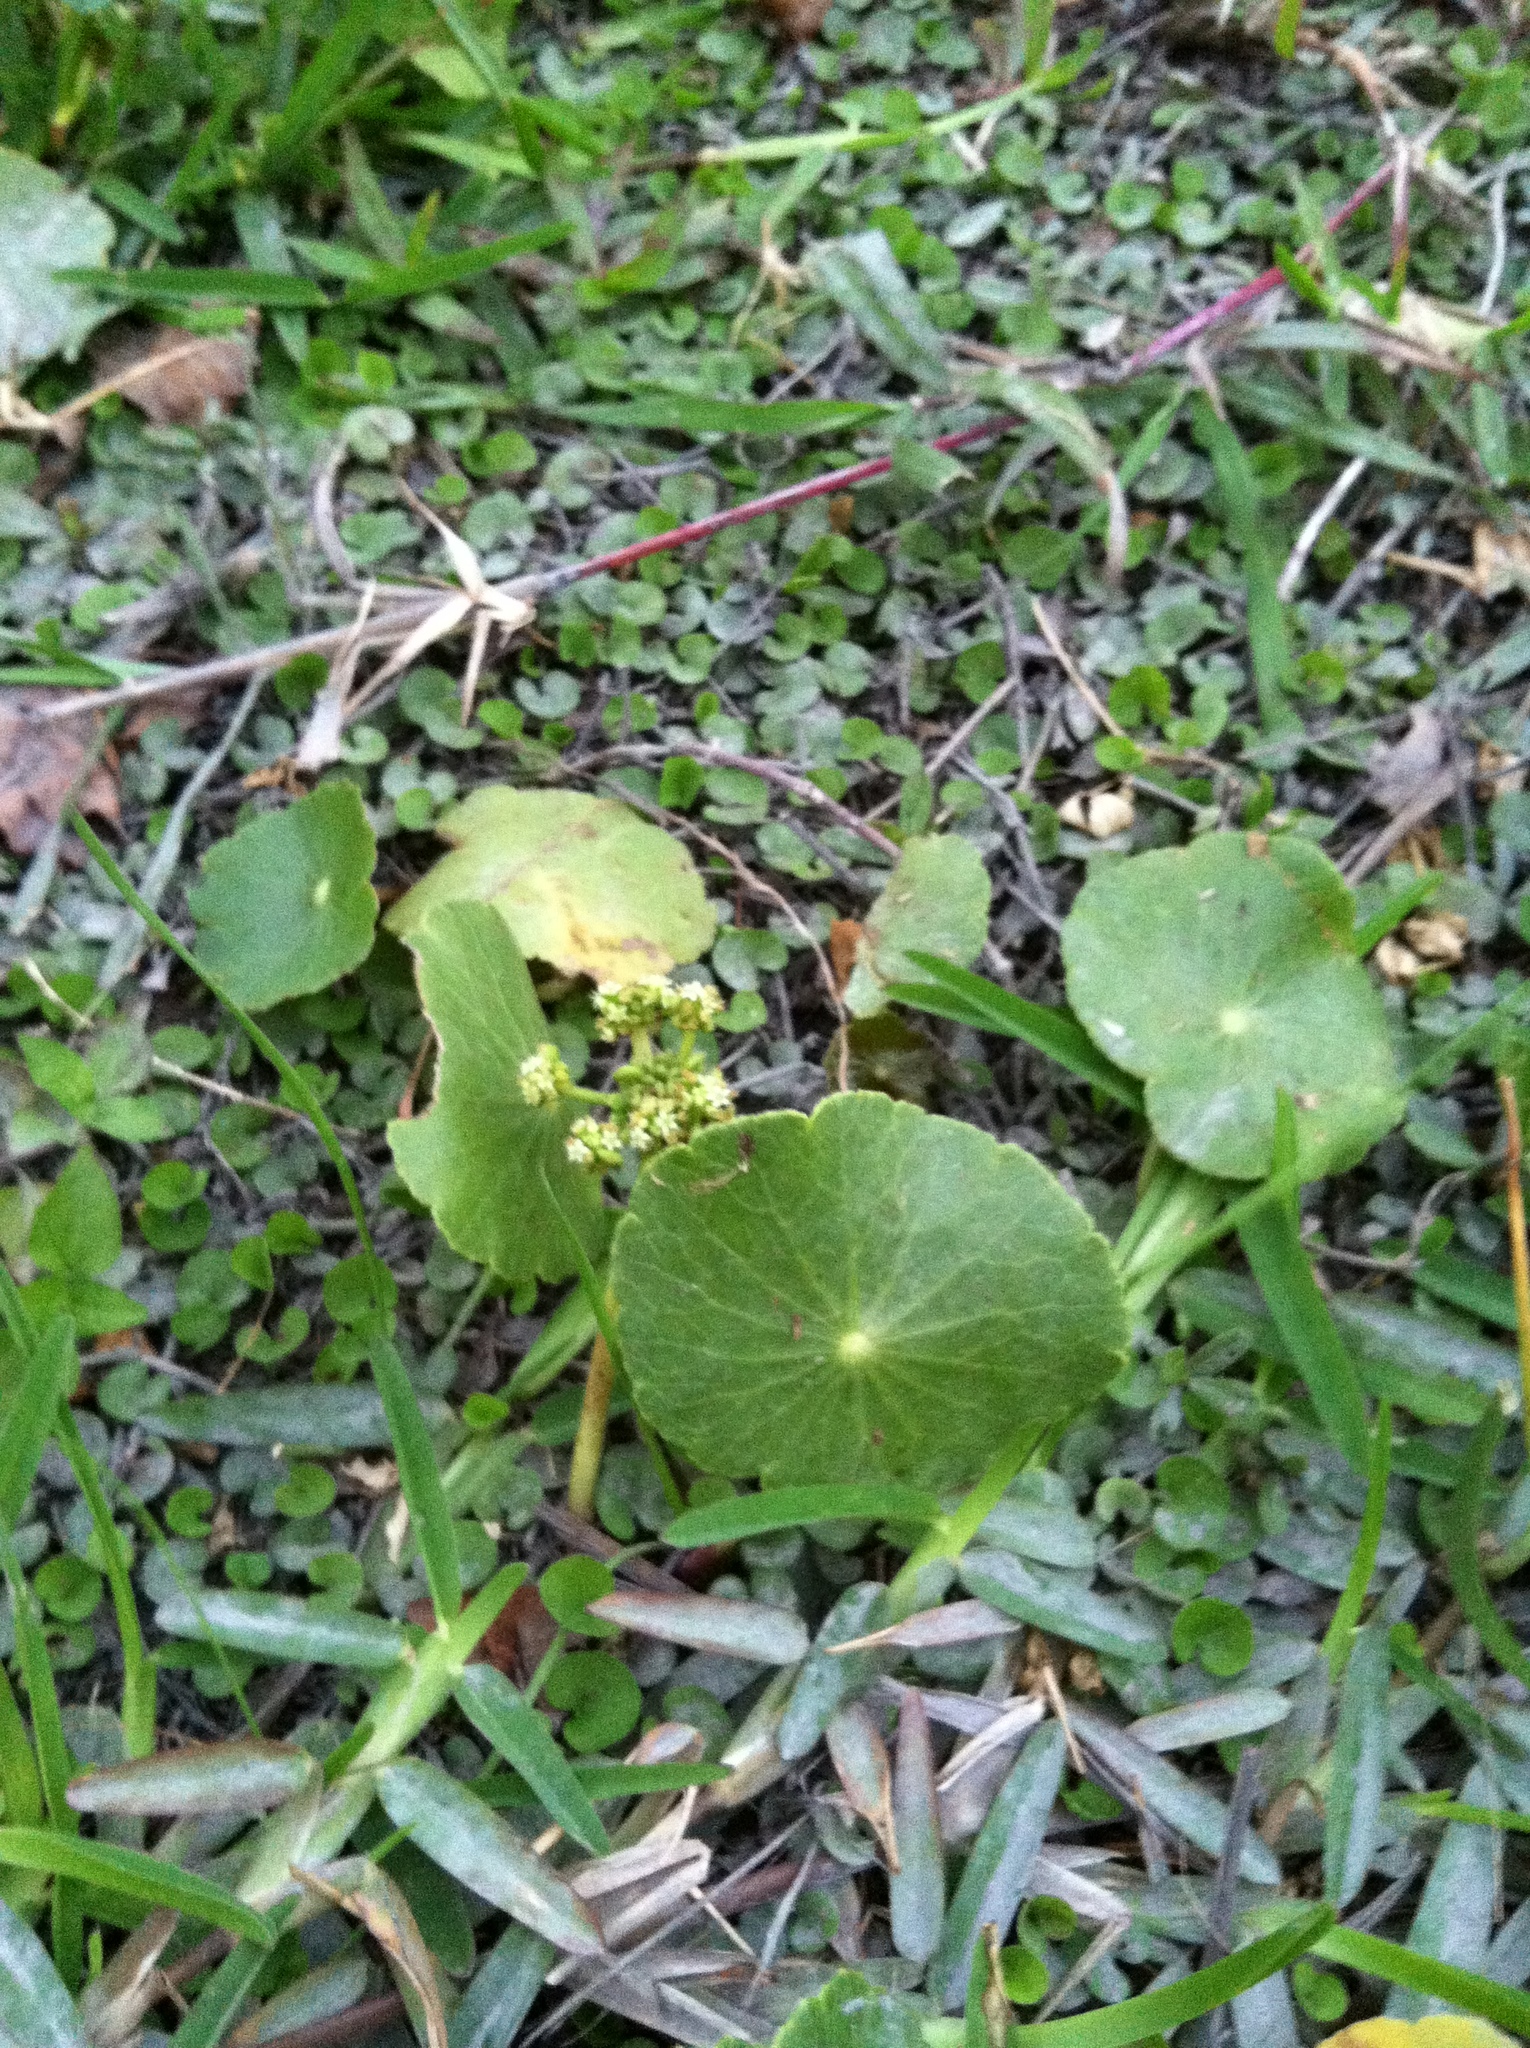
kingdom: Plantae
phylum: Tracheophyta
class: Magnoliopsida
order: Apiales
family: Araliaceae
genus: Hydrocotyle
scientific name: Hydrocotyle bonariensis
